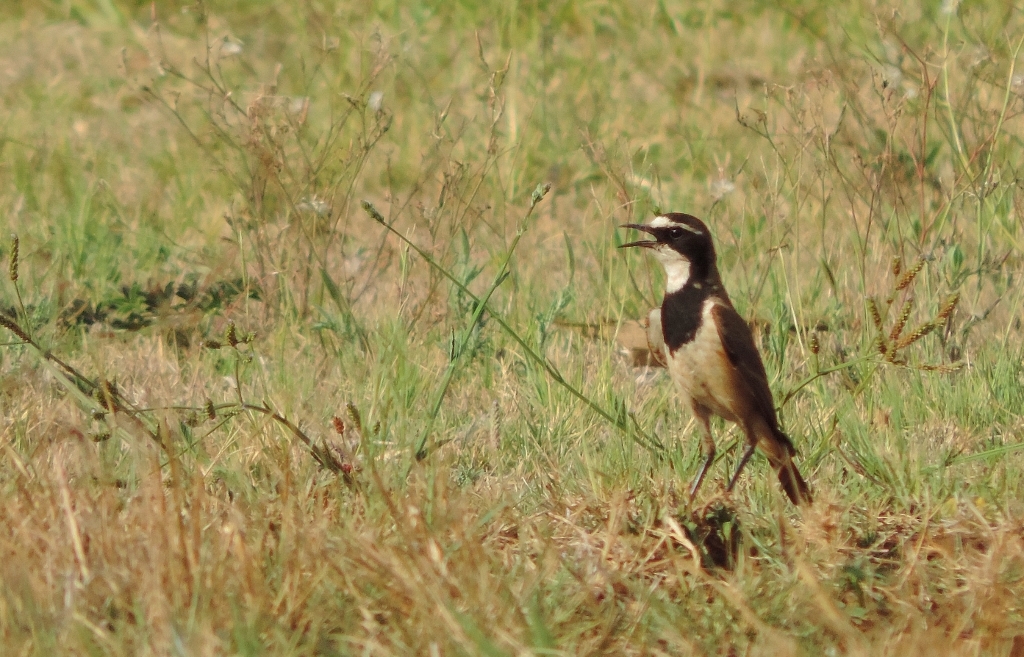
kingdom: Animalia
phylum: Chordata
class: Aves
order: Passeriformes
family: Muscicapidae
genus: Oenanthe
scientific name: Oenanthe pileata
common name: Capped wheatear
